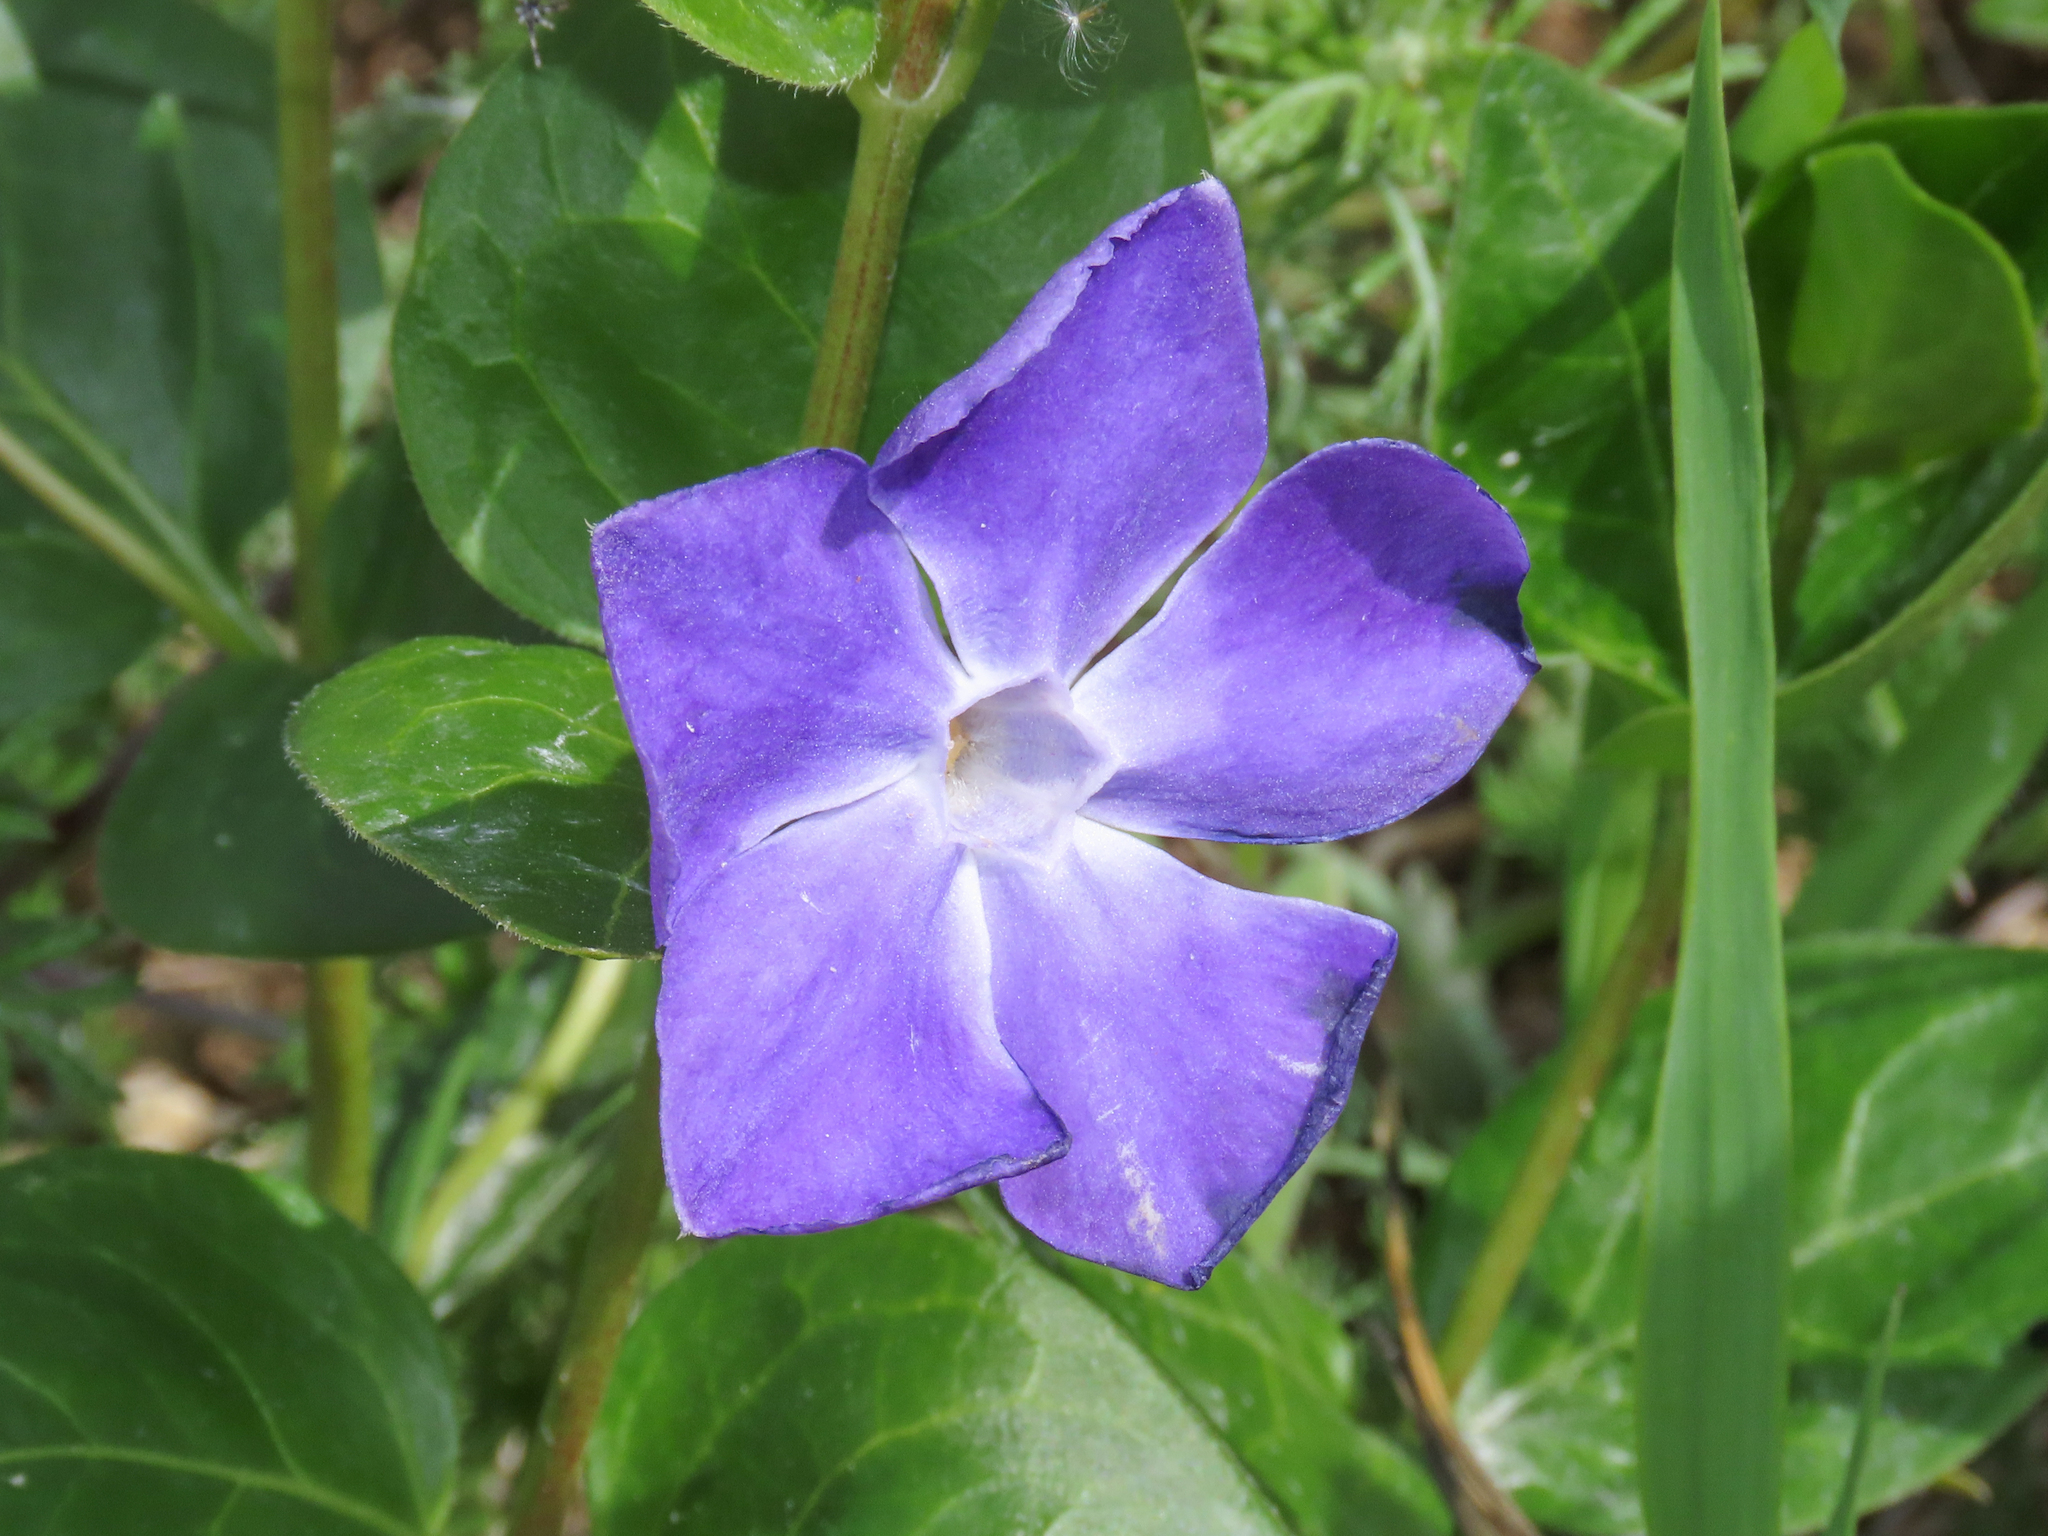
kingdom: Plantae
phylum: Tracheophyta
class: Magnoliopsida
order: Gentianales
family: Apocynaceae
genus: Vinca
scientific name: Vinca major
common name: Greater periwinkle
